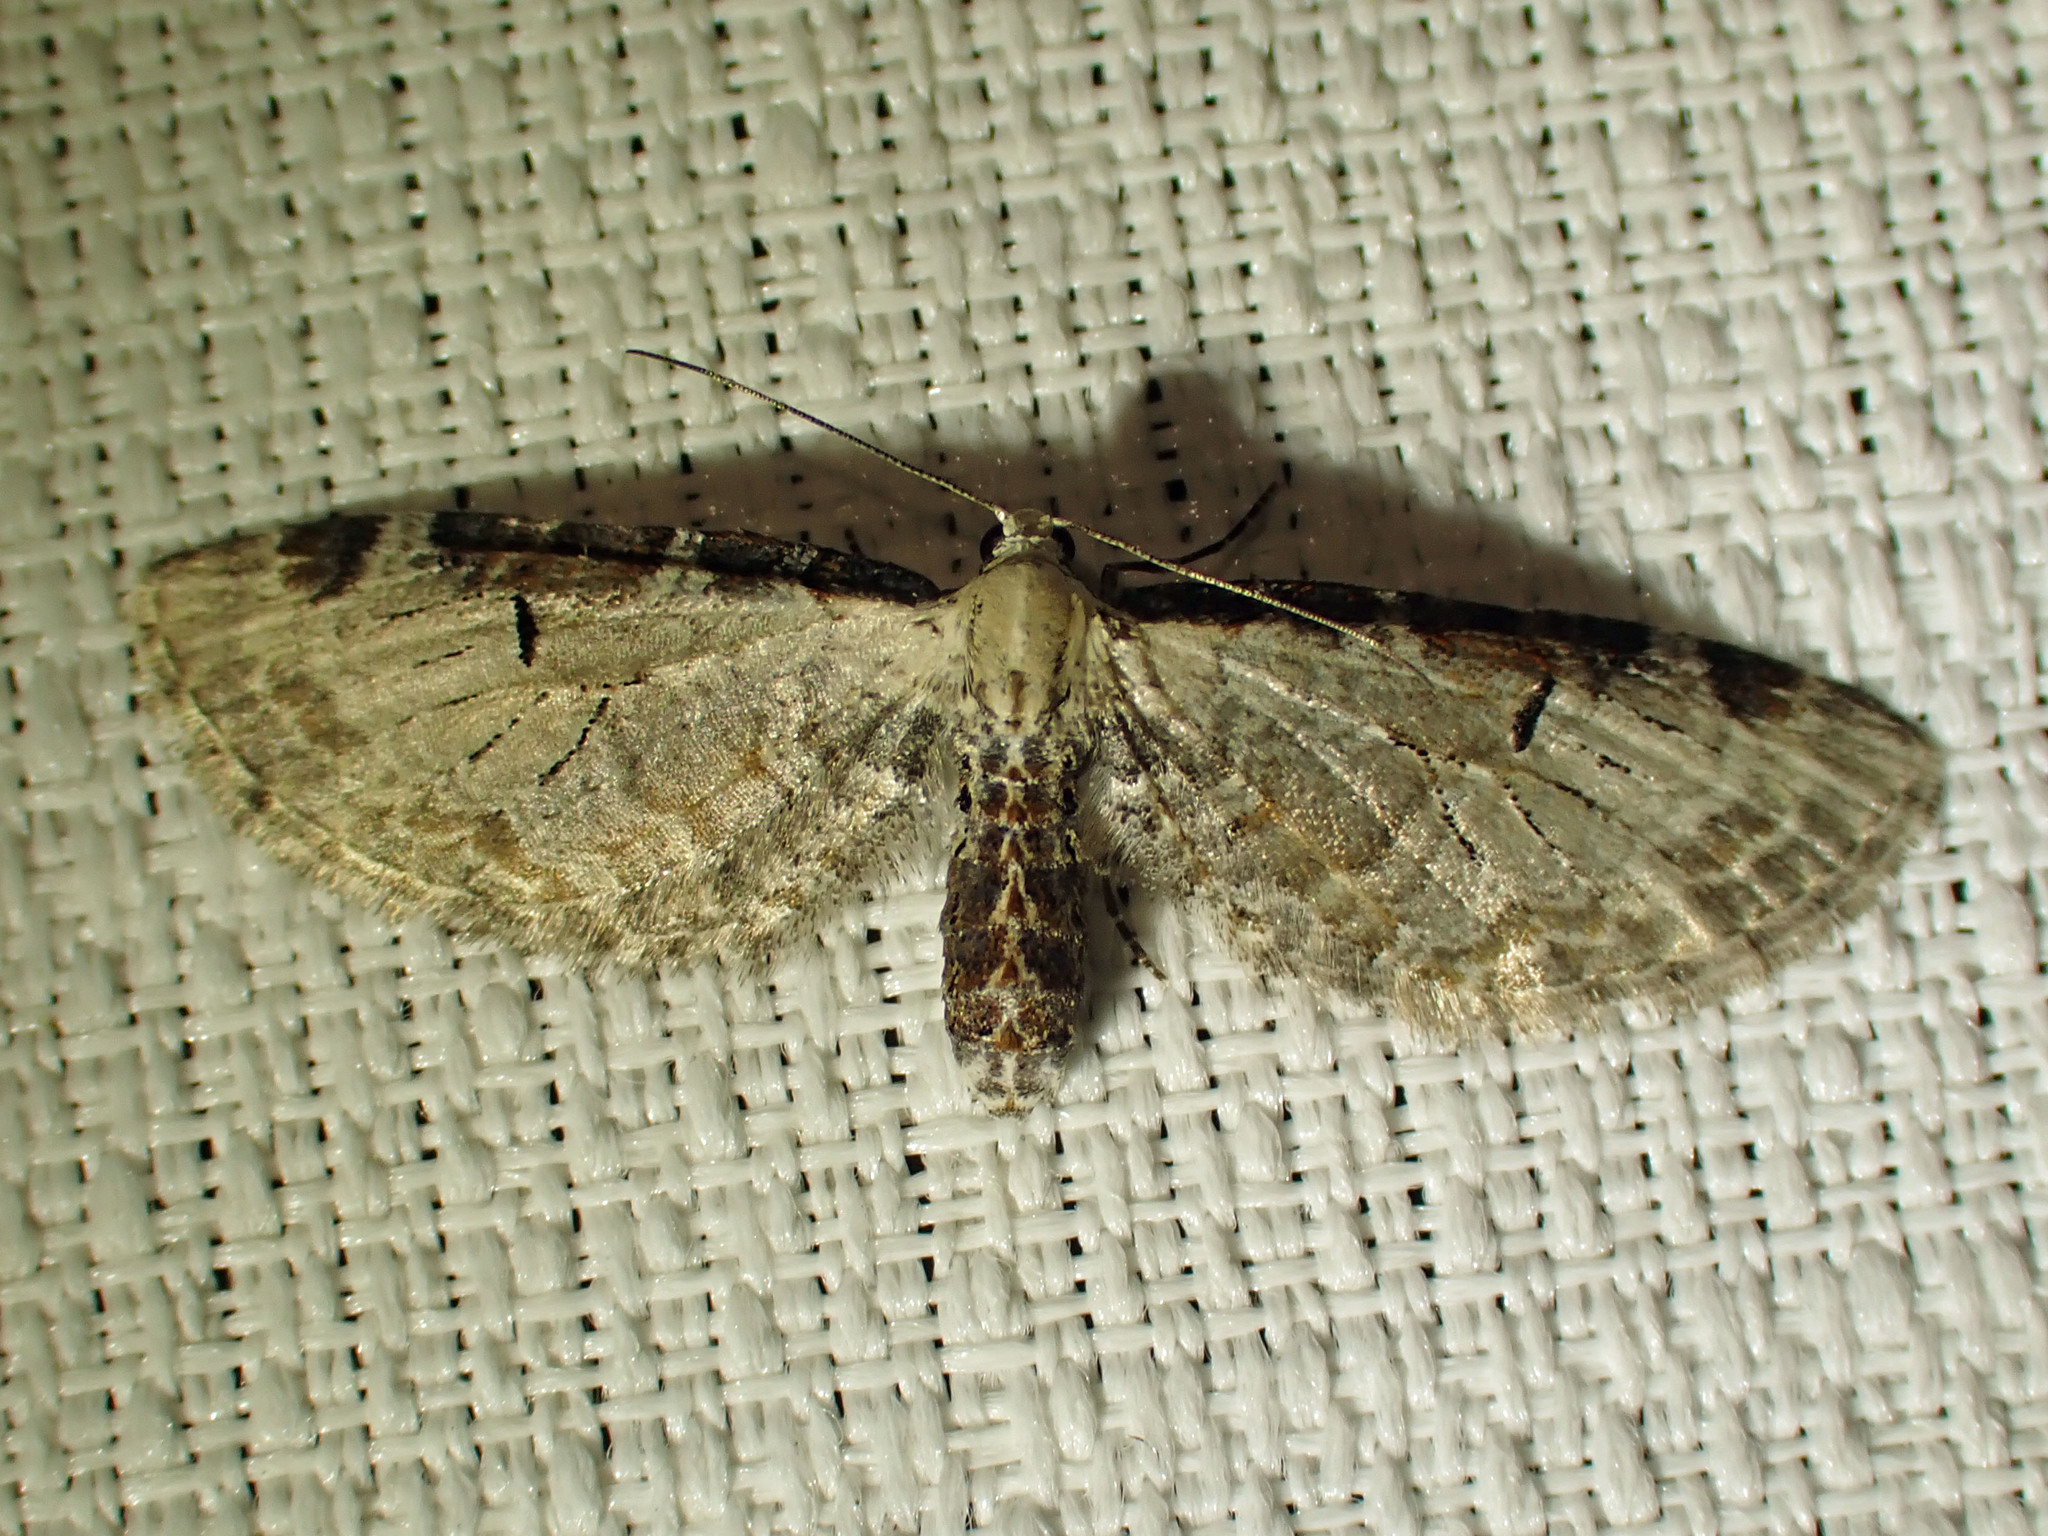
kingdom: Animalia
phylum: Arthropoda
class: Insecta
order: Lepidoptera
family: Geometridae
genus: Eupithecia
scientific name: Eupithecia ravocostaliata
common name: Great varigated pug
